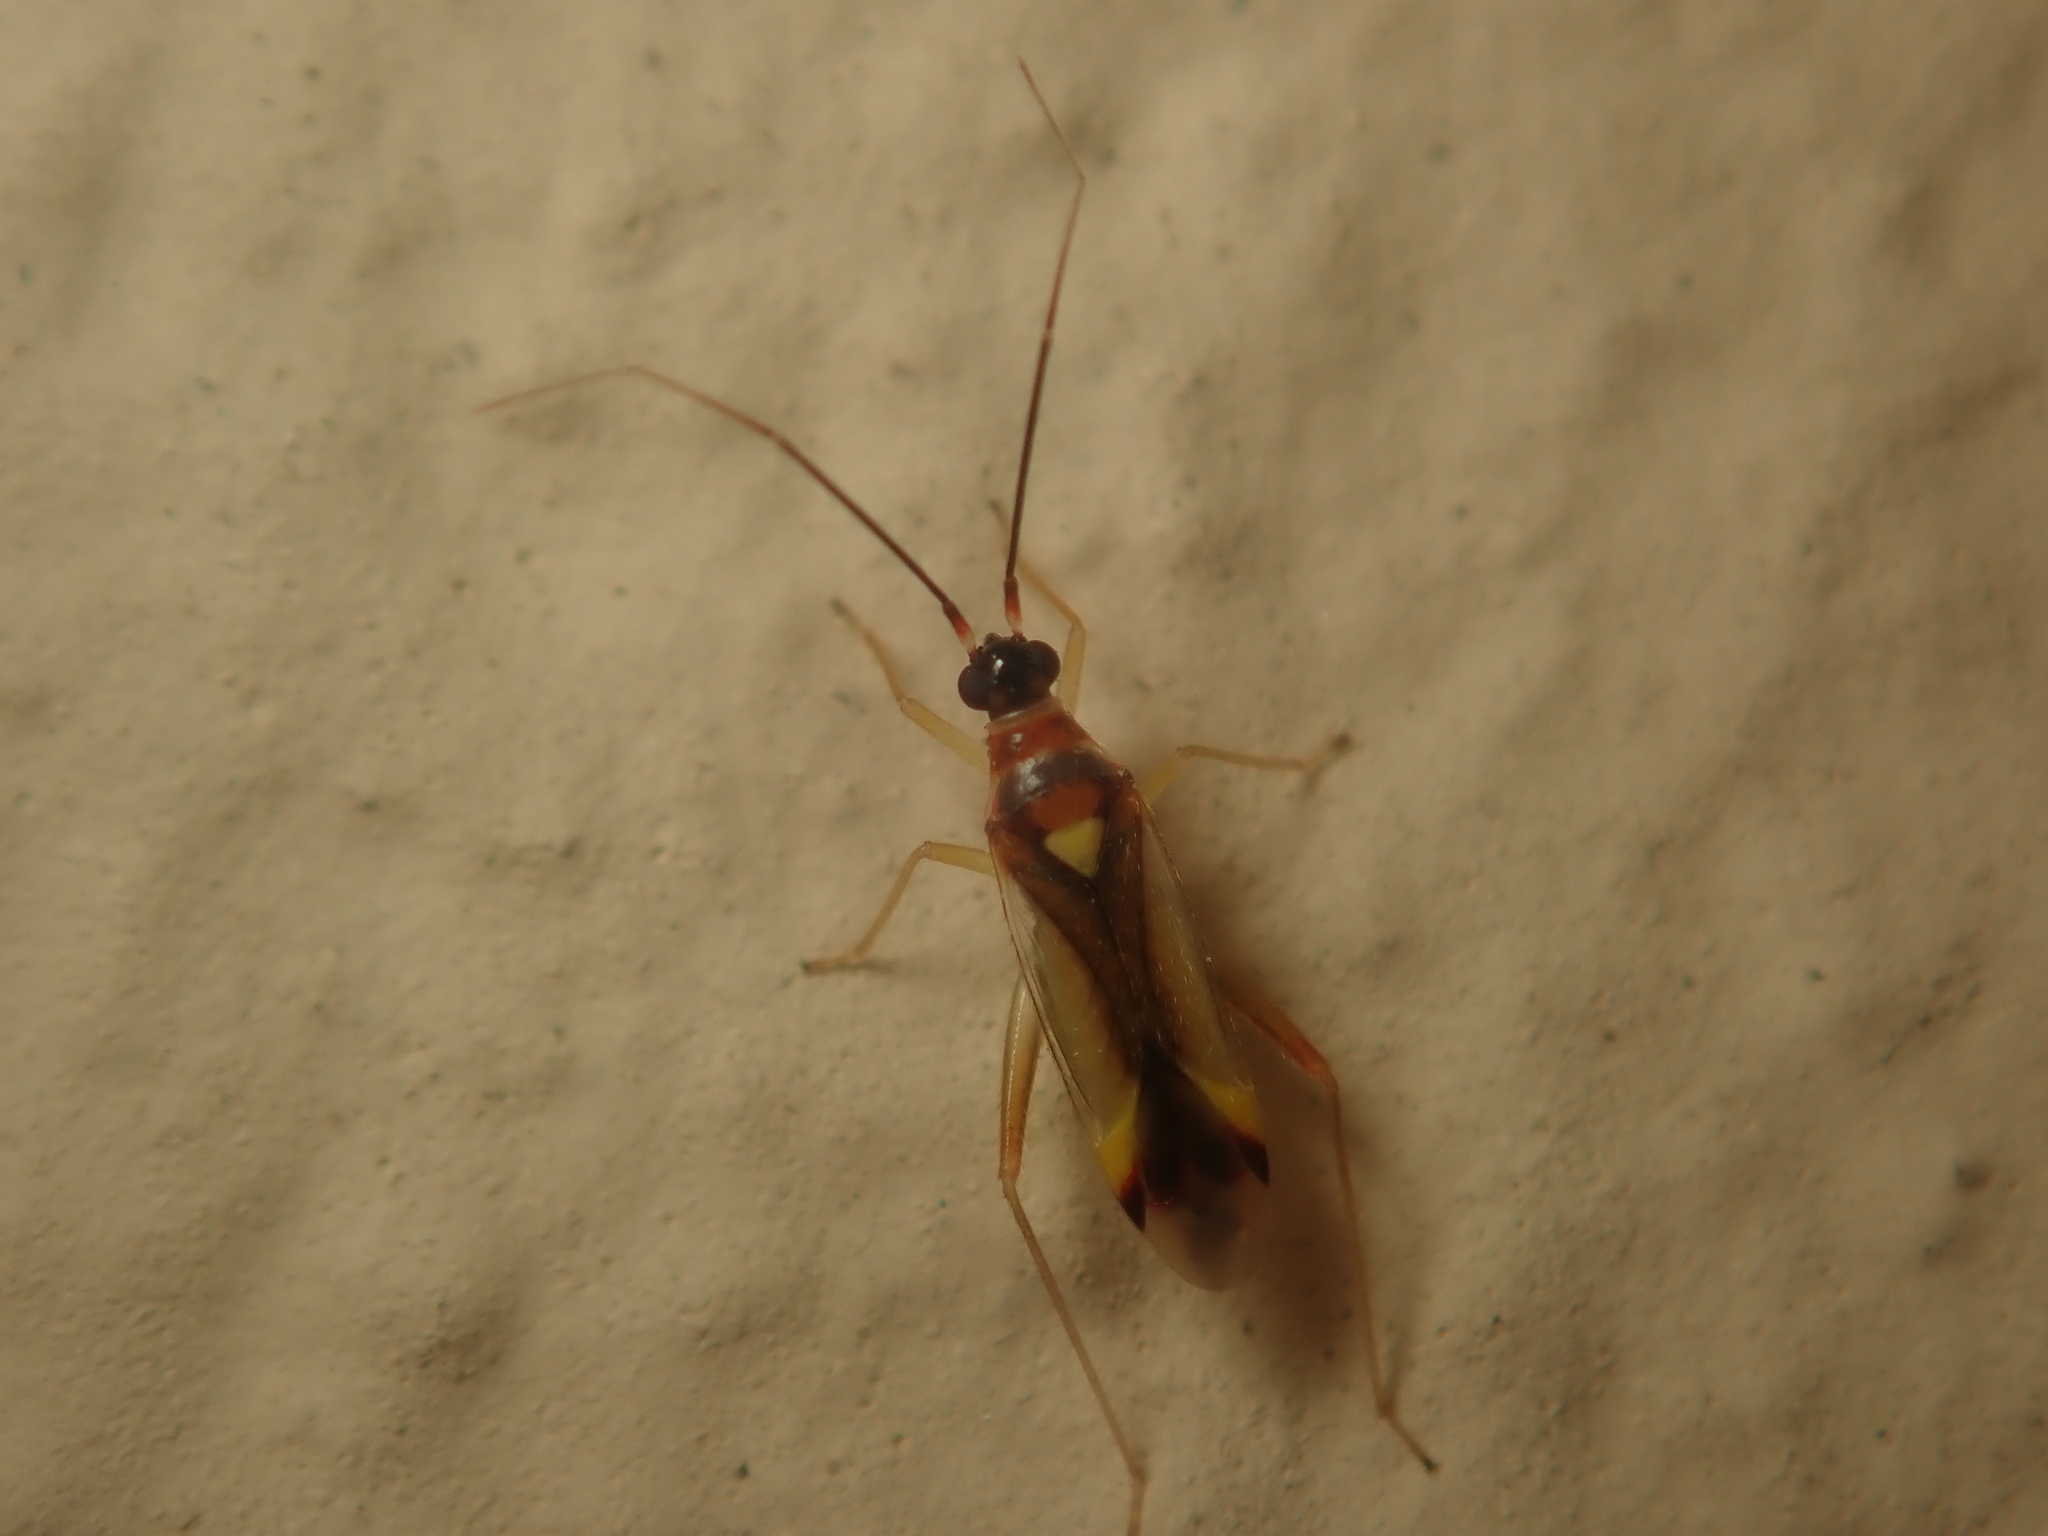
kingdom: Animalia
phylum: Arthropoda
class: Insecta
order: Hemiptera
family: Miridae
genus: Campyloneura
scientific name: Campyloneura virgula
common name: Predatory bug
